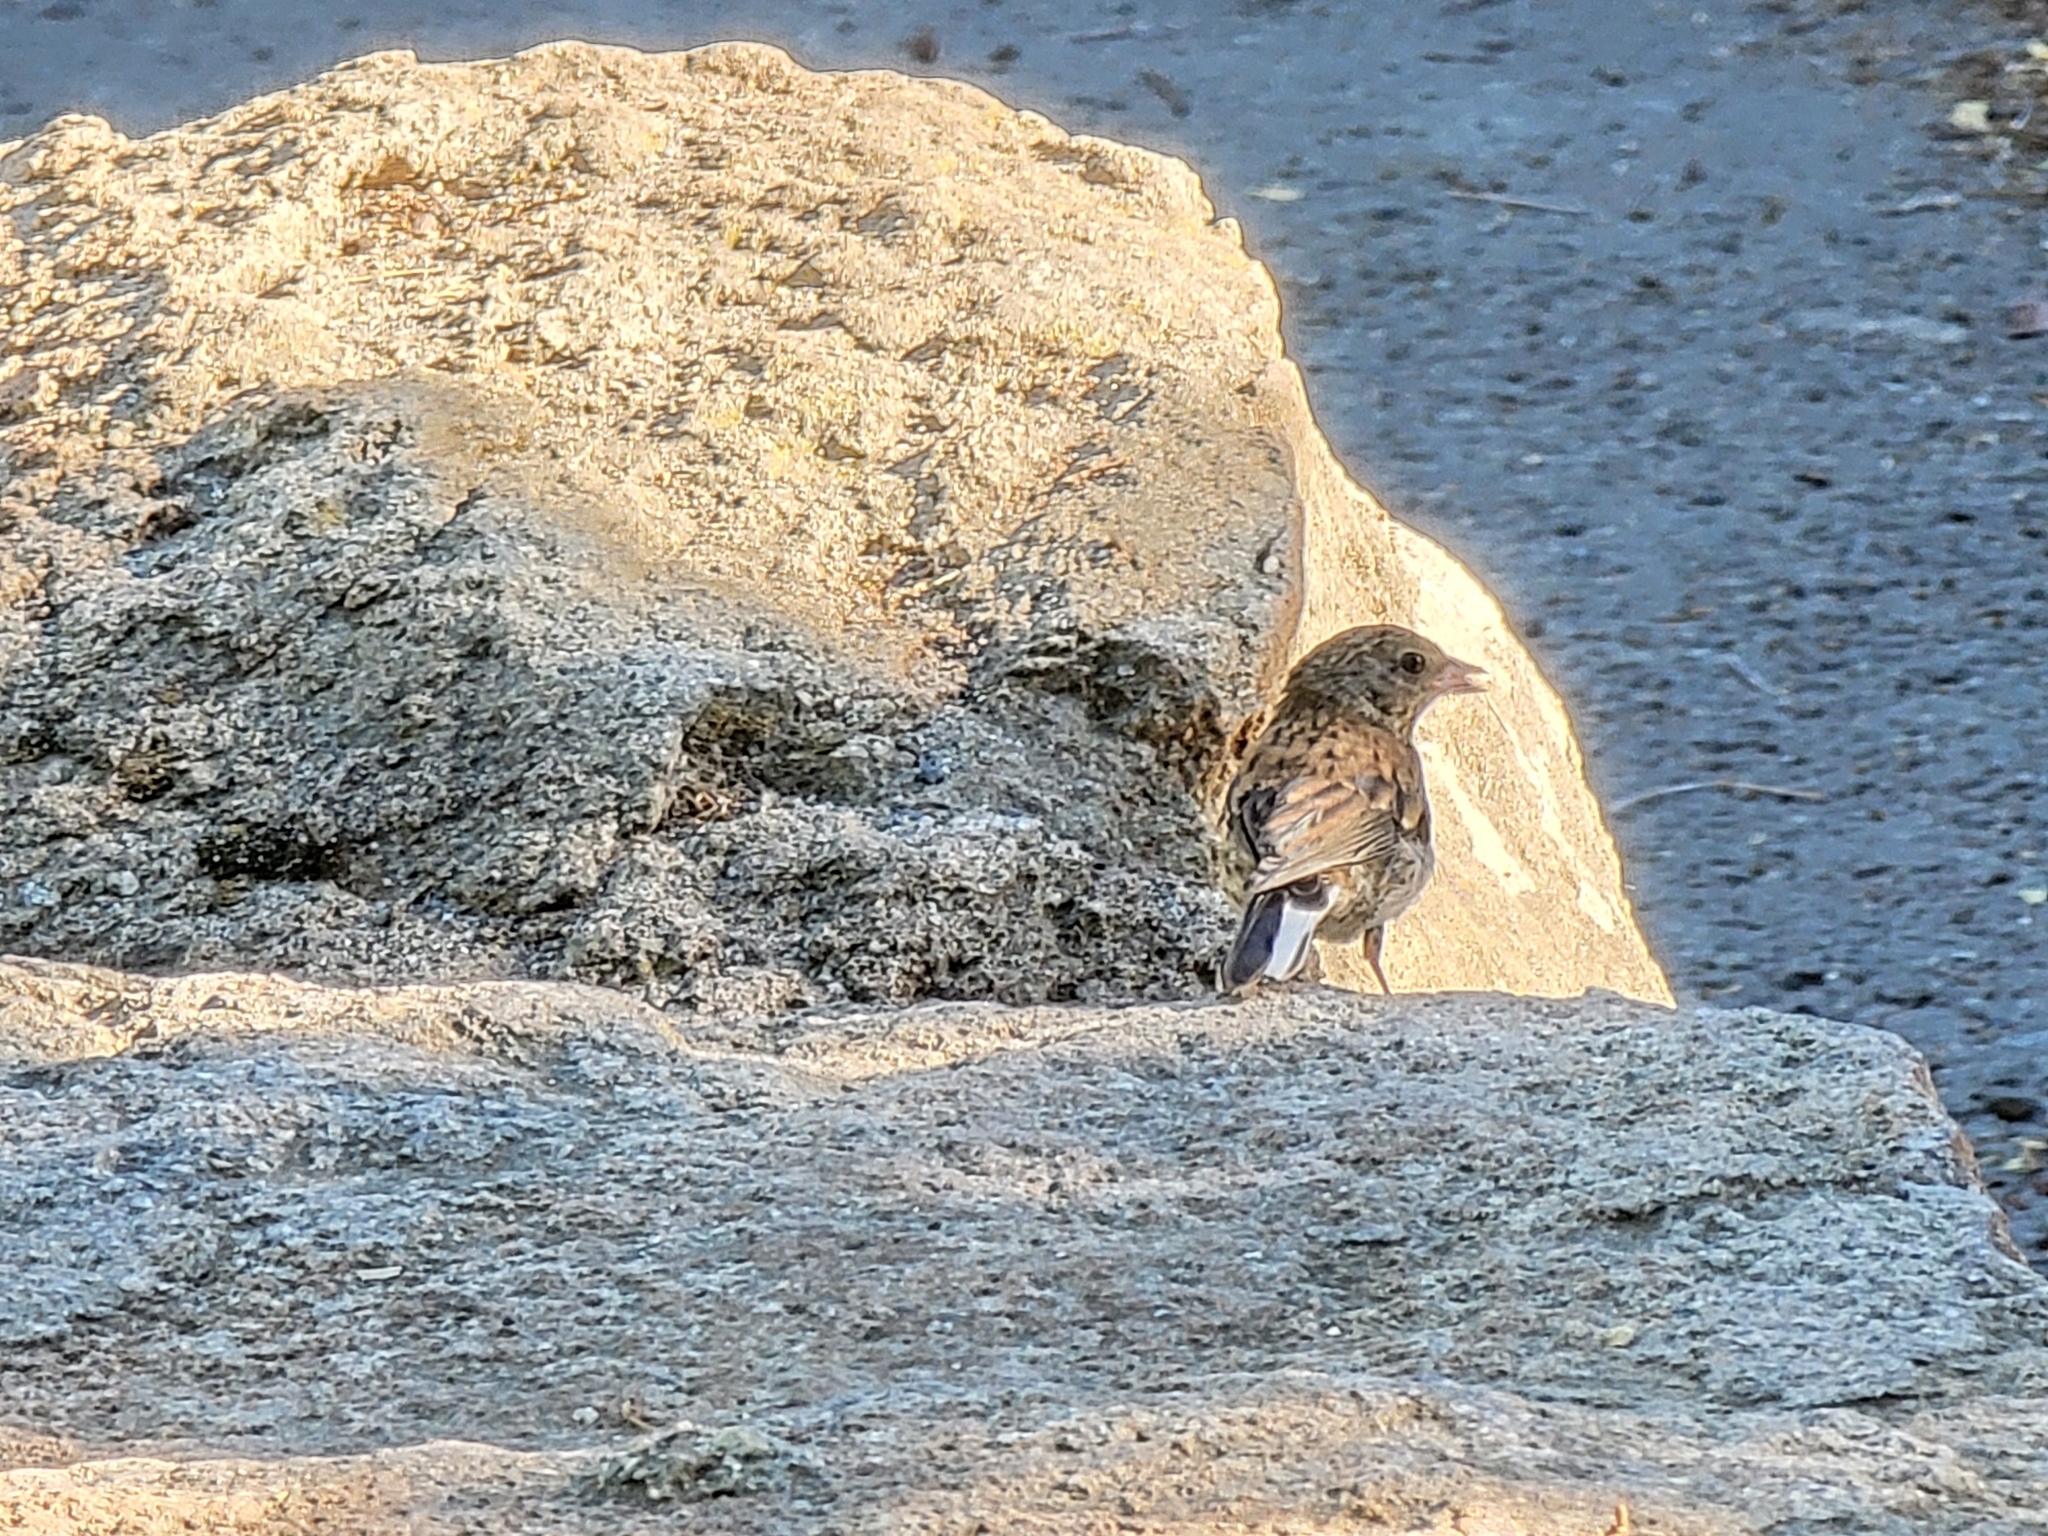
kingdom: Animalia
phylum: Chordata
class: Aves
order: Passeriformes
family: Passerellidae
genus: Junco
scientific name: Junco hyemalis
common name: Dark-eyed junco
